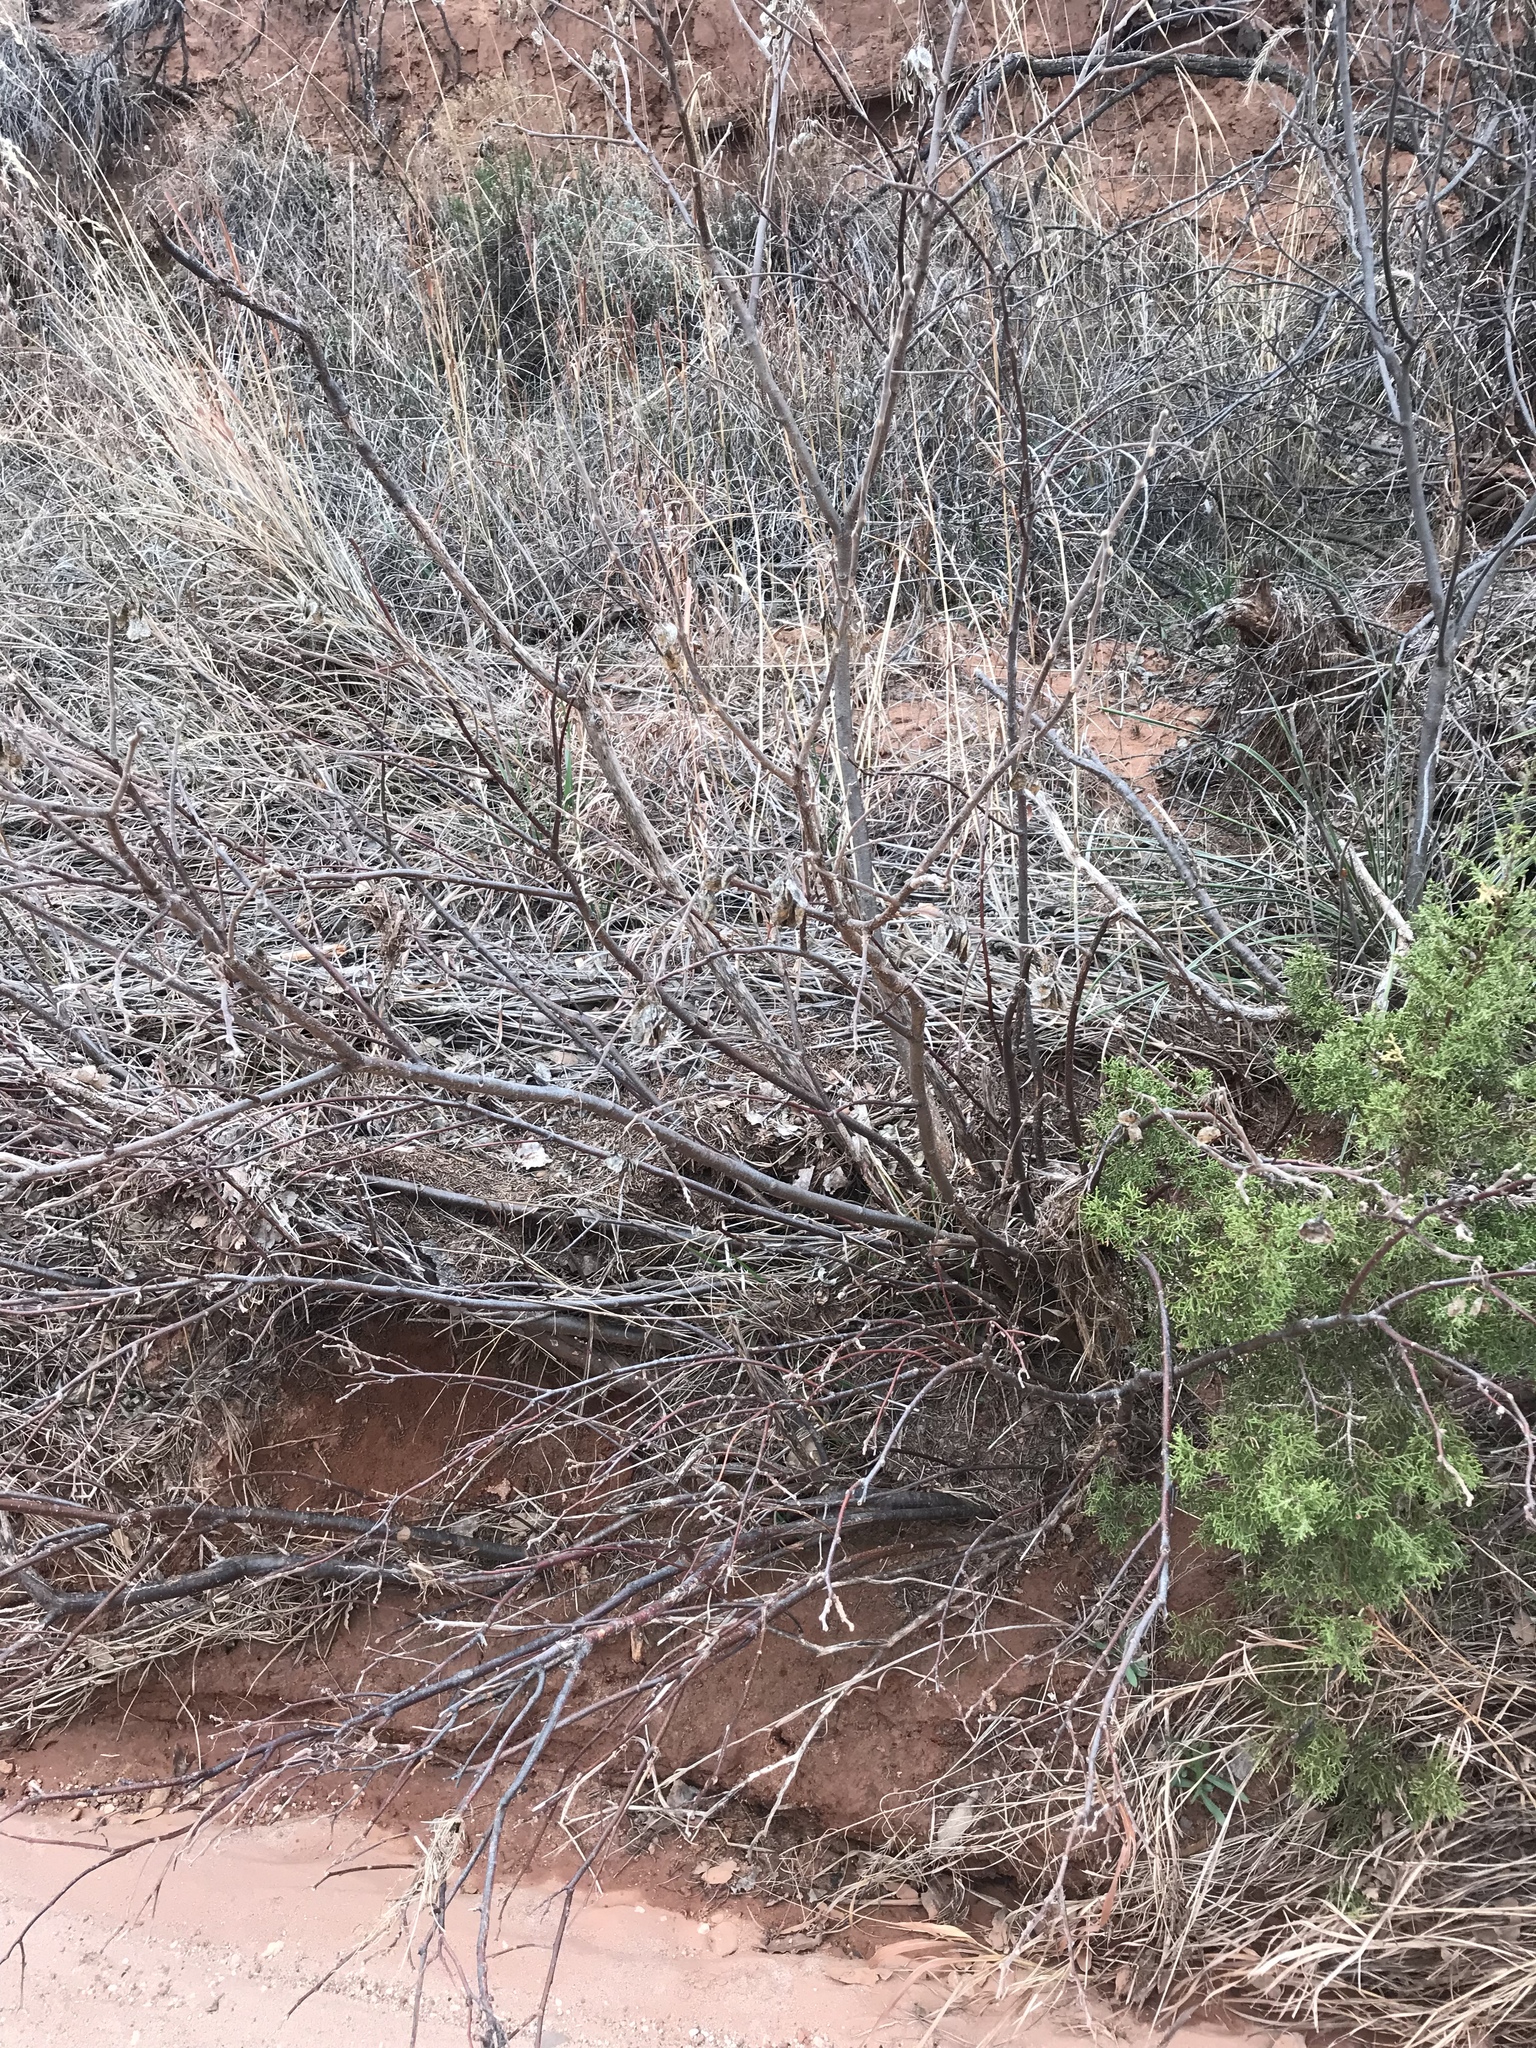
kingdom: Plantae
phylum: Tracheophyta
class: Magnoliopsida
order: Sapindales
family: Rutaceae
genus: Ptelea
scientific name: Ptelea trifoliata
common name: Common hop-tree
